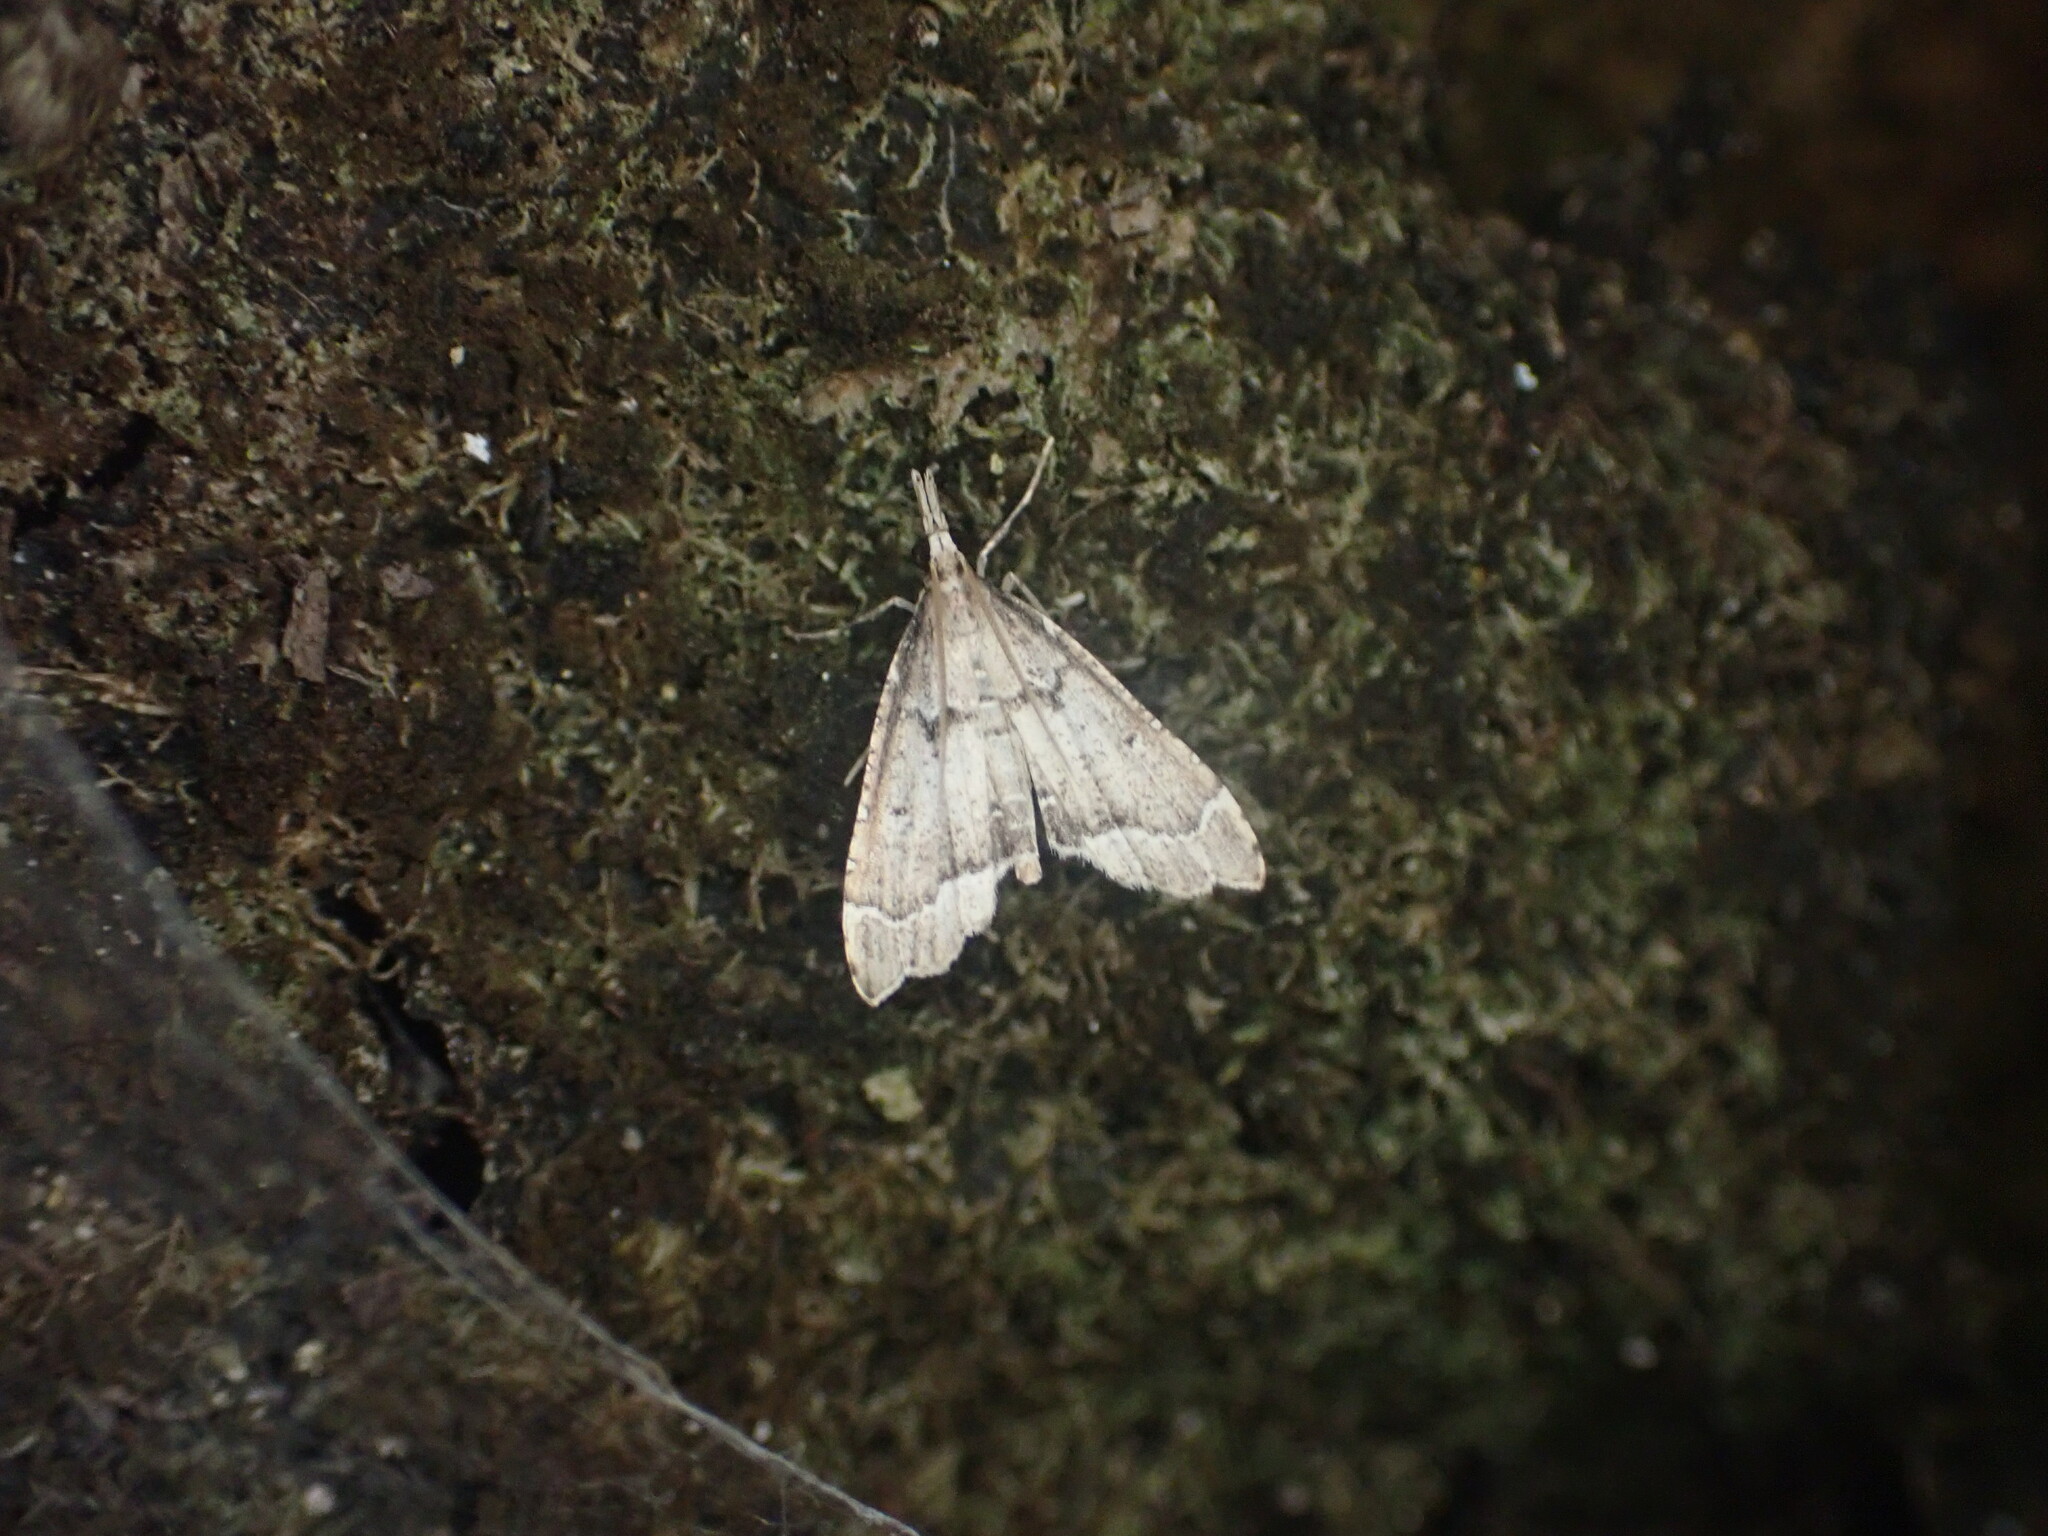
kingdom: Animalia
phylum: Arthropoda
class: Insecta
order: Lepidoptera
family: Crambidae
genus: Diplopseustis
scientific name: Diplopseustis perieresalis
